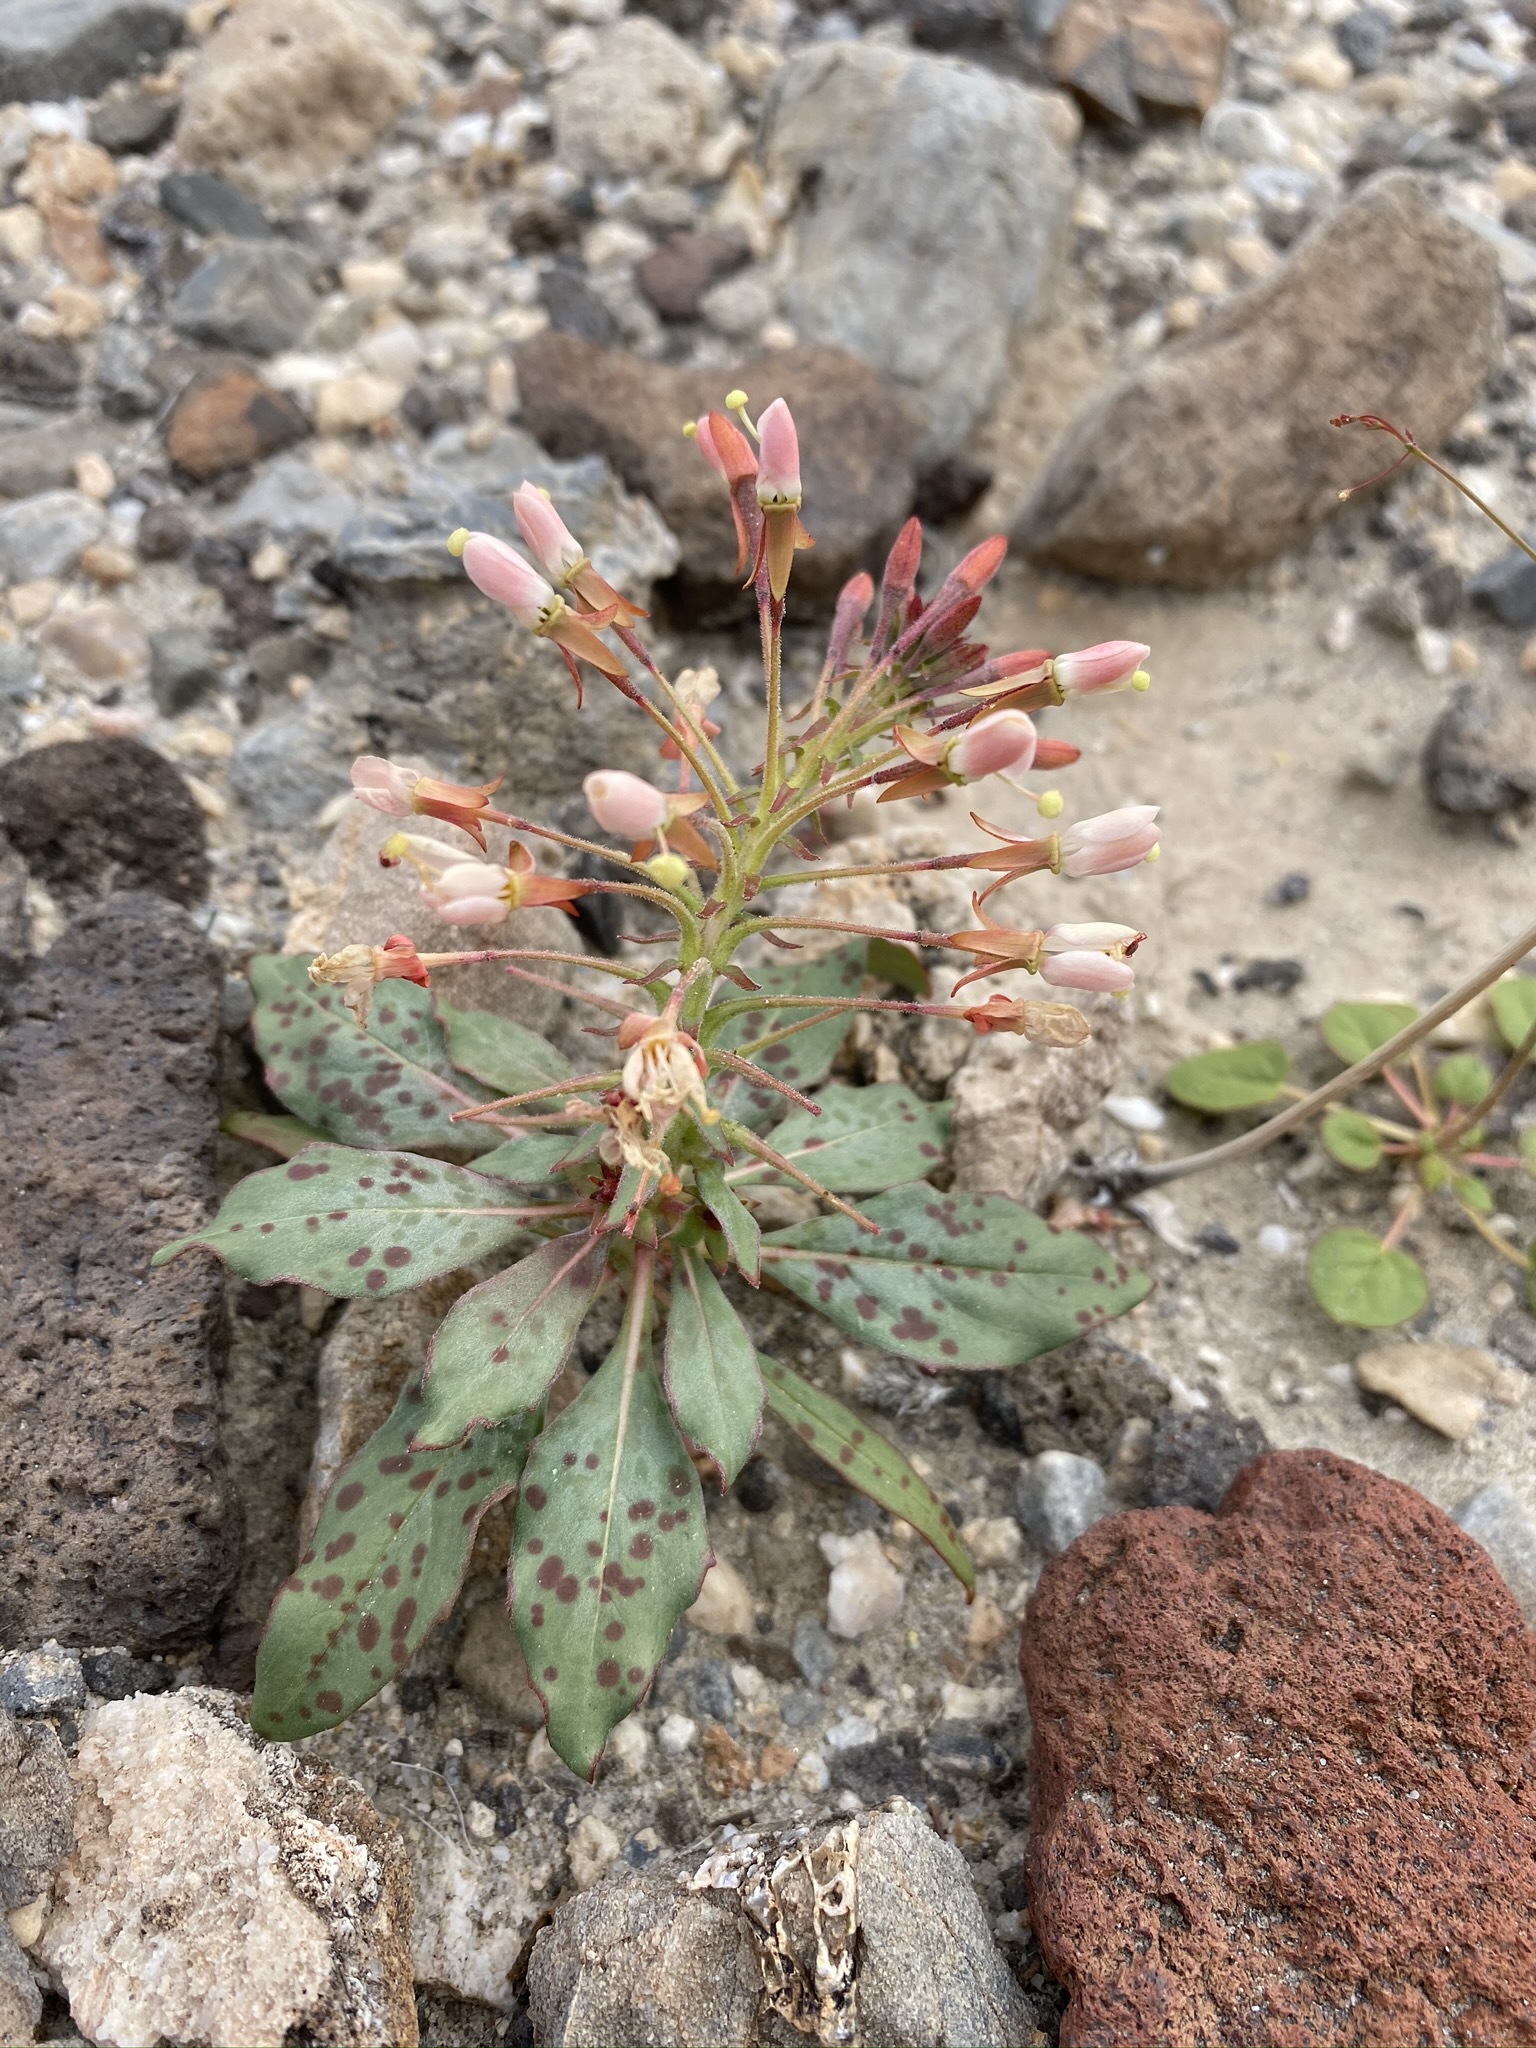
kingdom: Plantae
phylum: Tracheophyta
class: Magnoliopsida
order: Myrtales
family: Onagraceae
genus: Eremothera
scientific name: Eremothera boothii
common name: Booth's evening primrose
